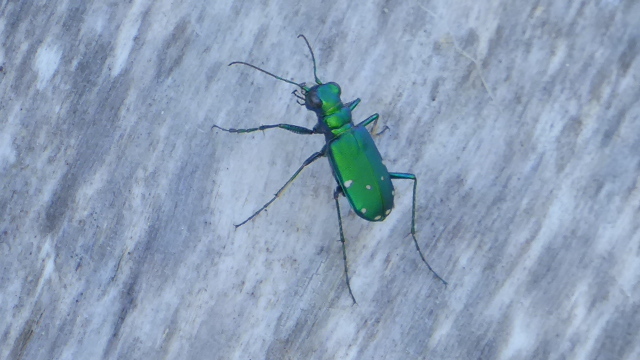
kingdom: Animalia
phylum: Arthropoda
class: Insecta
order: Coleoptera
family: Carabidae
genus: Cicindela
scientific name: Cicindela sexguttata
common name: Six-spotted tiger beetle
